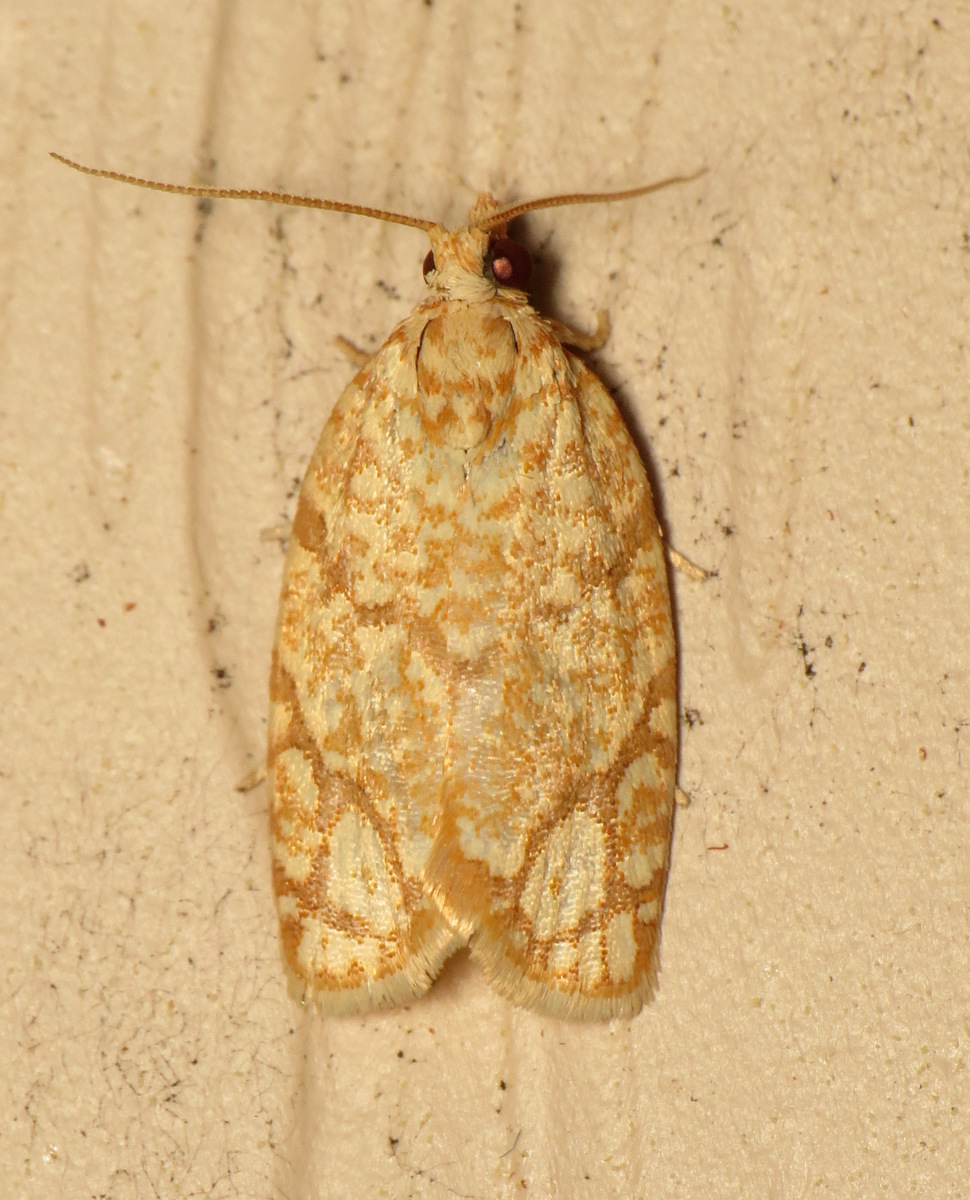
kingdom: Animalia
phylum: Arthropoda
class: Insecta
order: Lepidoptera
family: Tortricidae
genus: Argyrotaenia
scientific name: Argyrotaenia quercifoliana
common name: Yellow-winged oak leafroller moth
